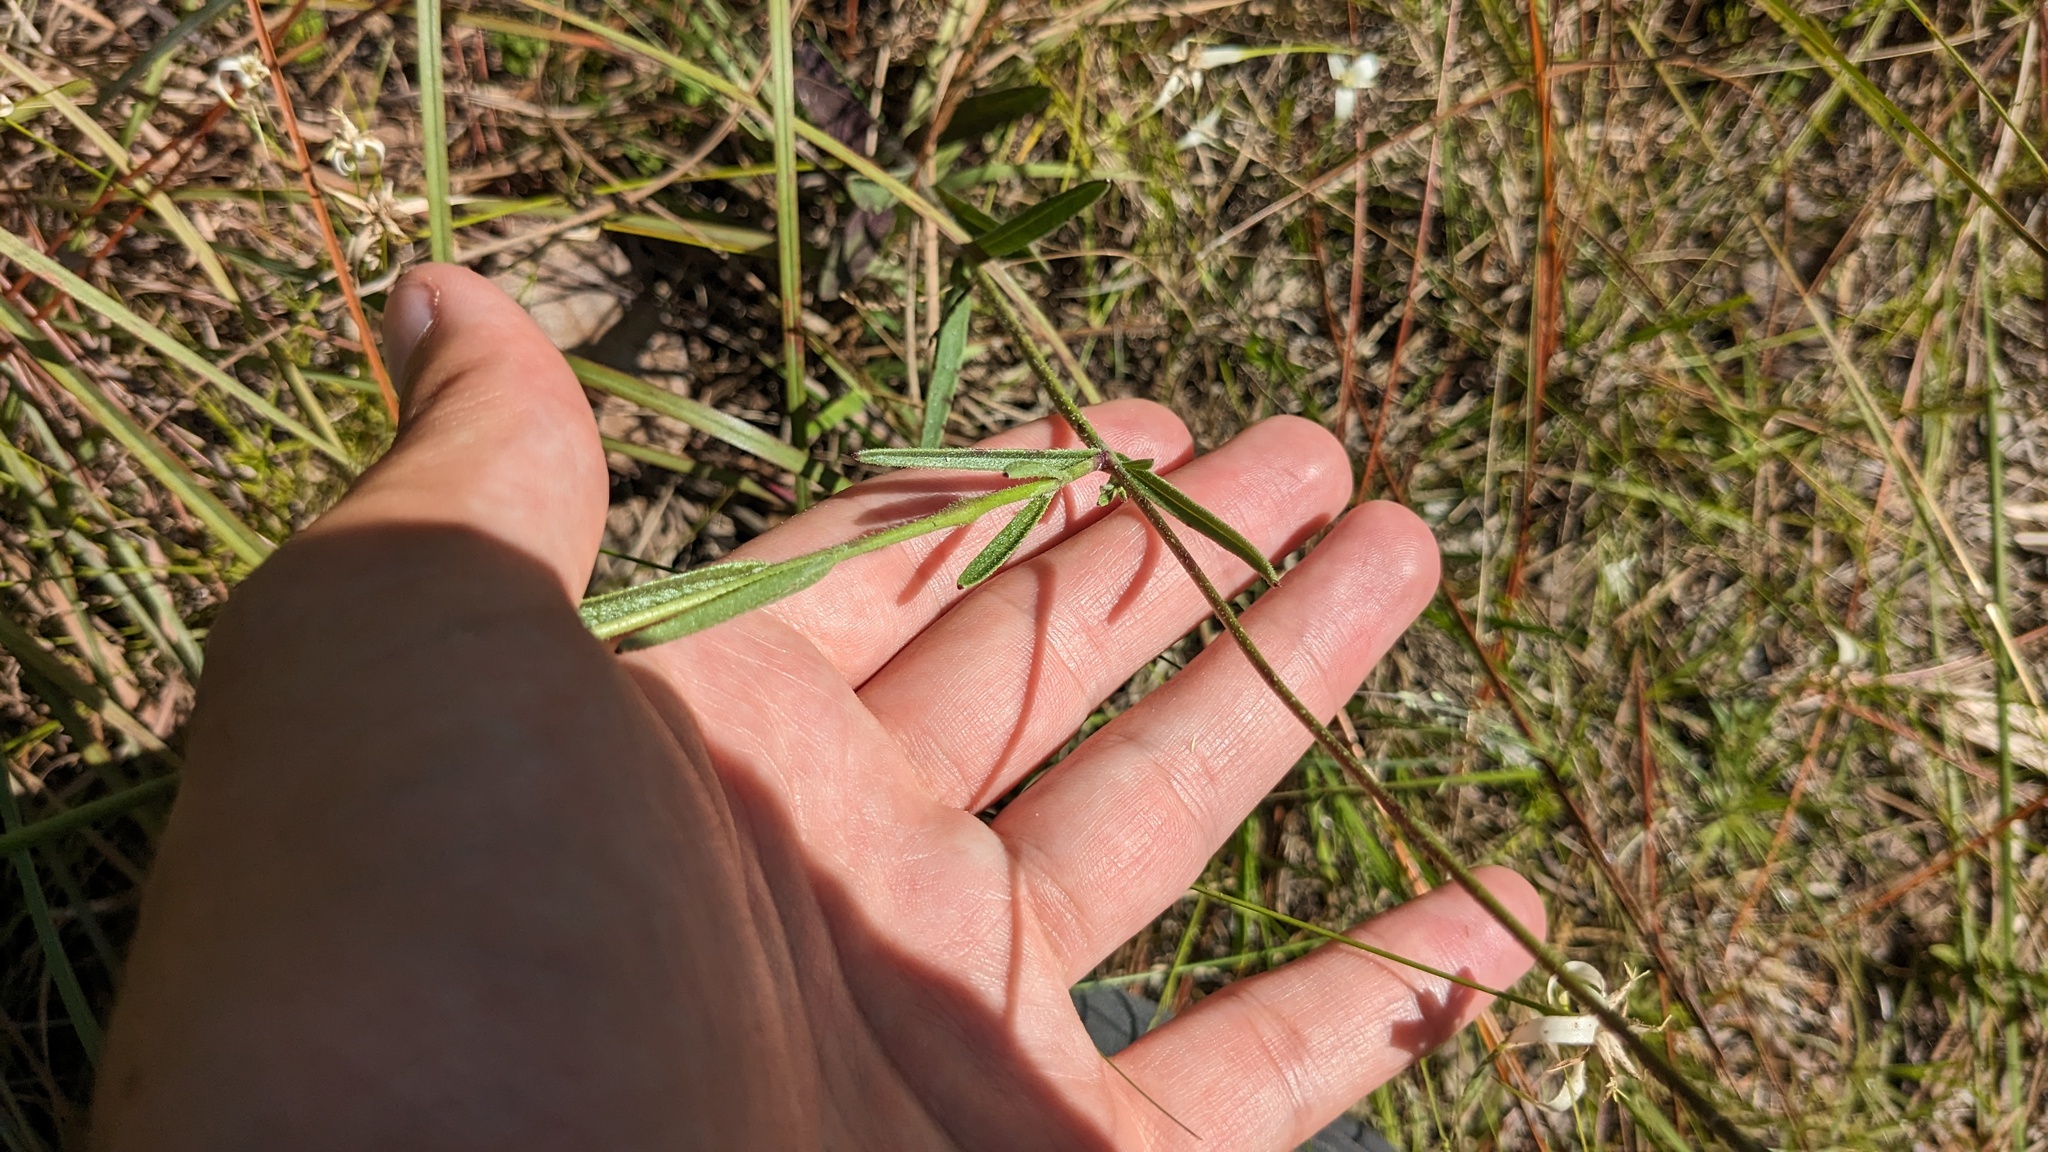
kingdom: Plantae
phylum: Tracheophyta
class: Magnoliopsida
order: Lamiales
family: Orobanchaceae
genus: Buchnera
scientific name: Buchnera floridana
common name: Florida bluehearts
